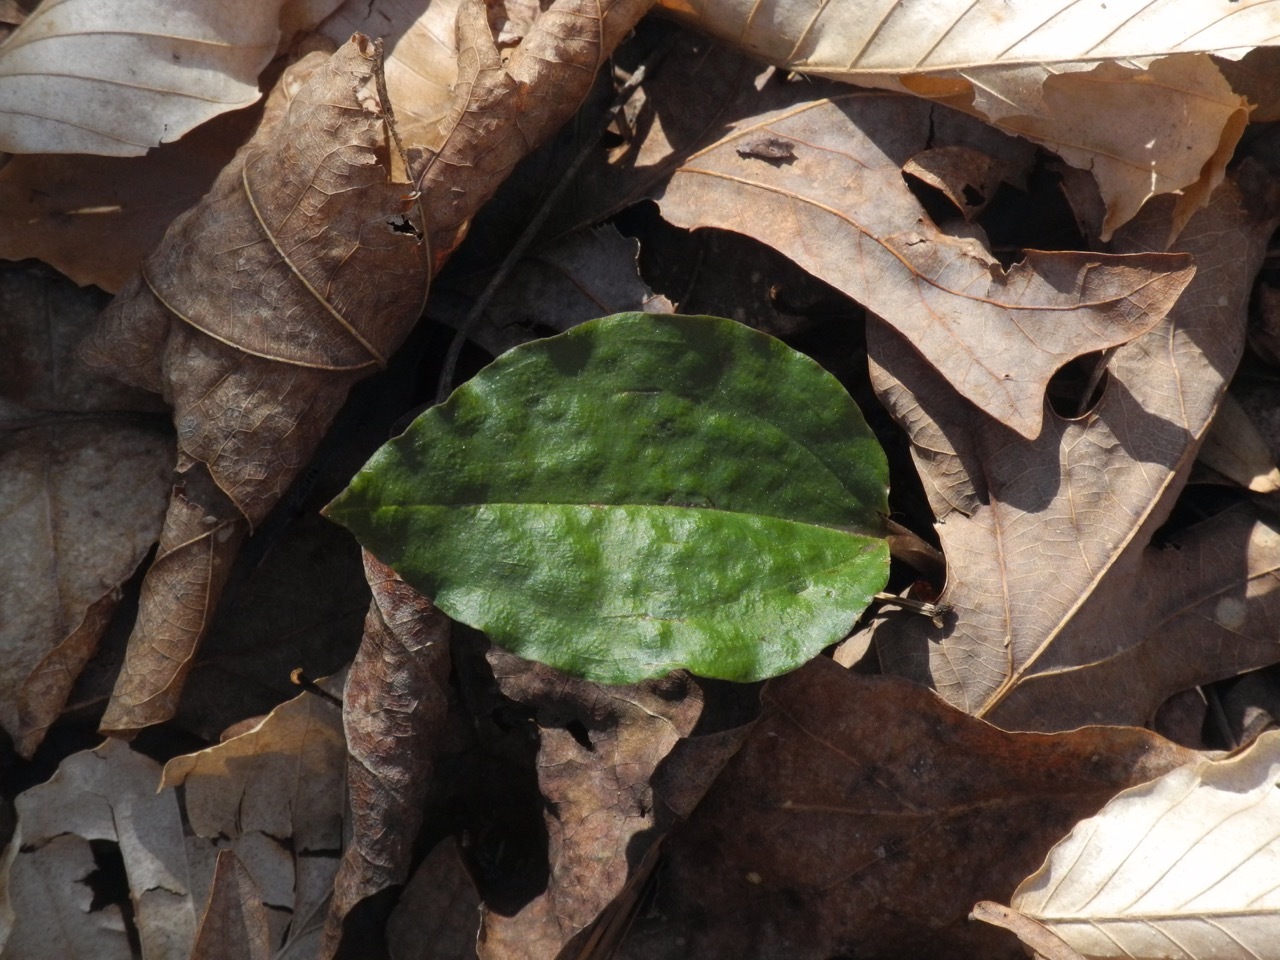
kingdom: Plantae
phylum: Tracheophyta
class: Liliopsida
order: Asparagales
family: Orchidaceae
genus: Tipularia
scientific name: Tipularia discolor
